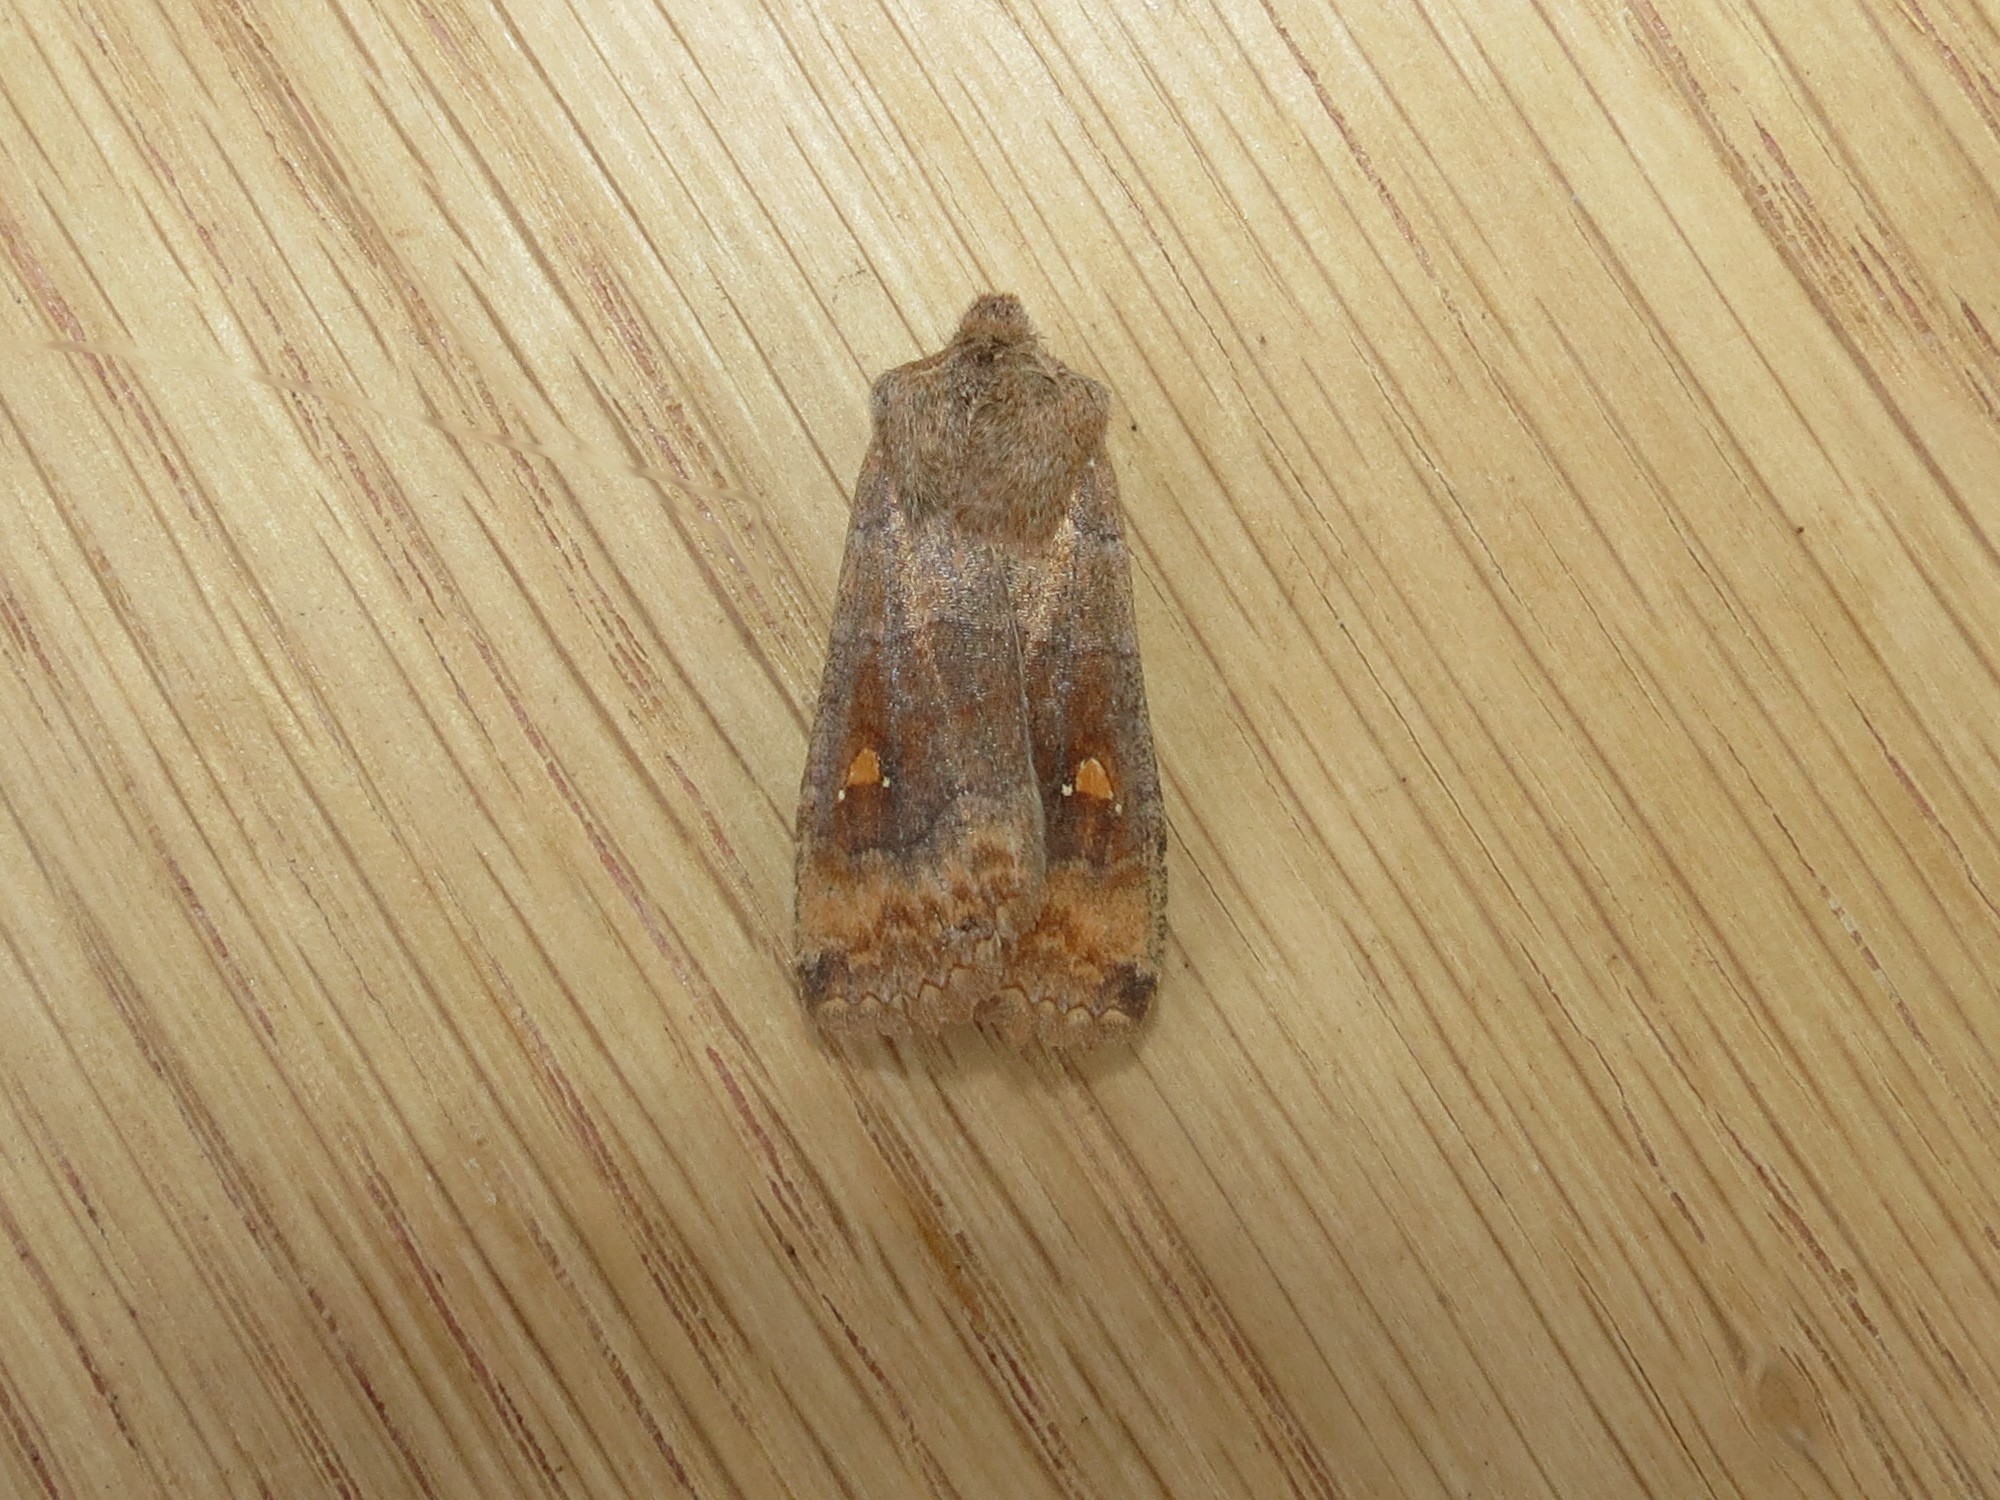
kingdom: Animalia
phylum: Arthropoda
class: Insecta
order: Lepidoptera
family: Noctuidae
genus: Eupsilia
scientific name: Eupsilia transversa
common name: Satellite
